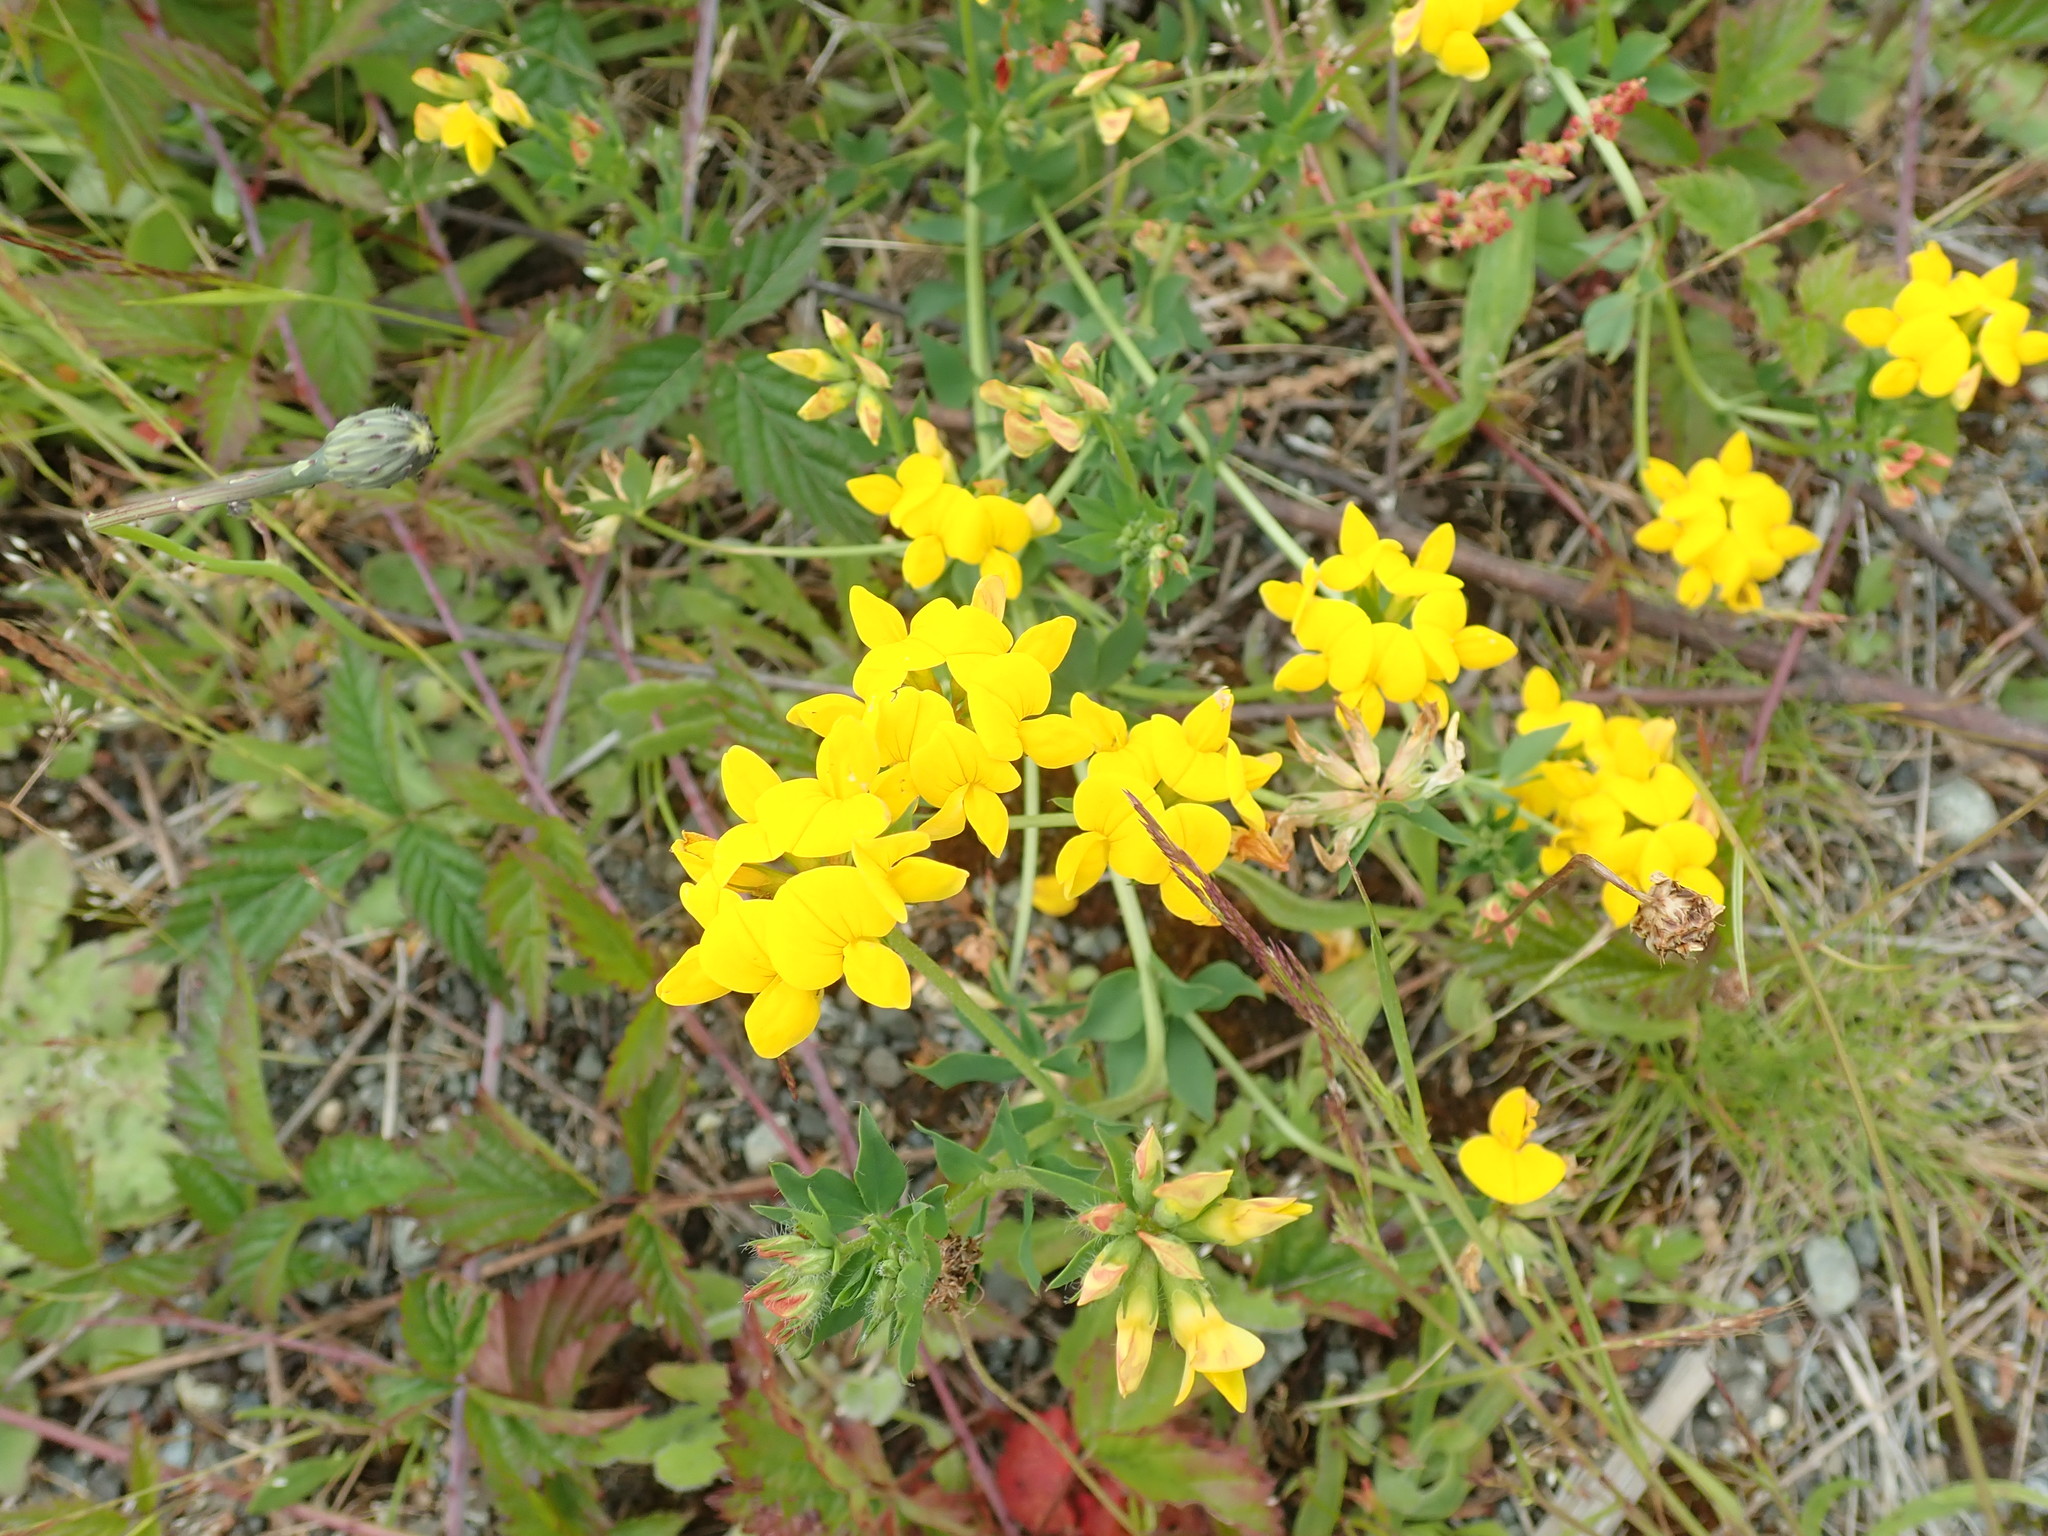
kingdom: Plantae
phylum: Tracheophyta
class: Magnoliopsida
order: Fabales
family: Fabaceae
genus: Lotus
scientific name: Lotus corniculatus
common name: Common bird's-foot-trefoil
